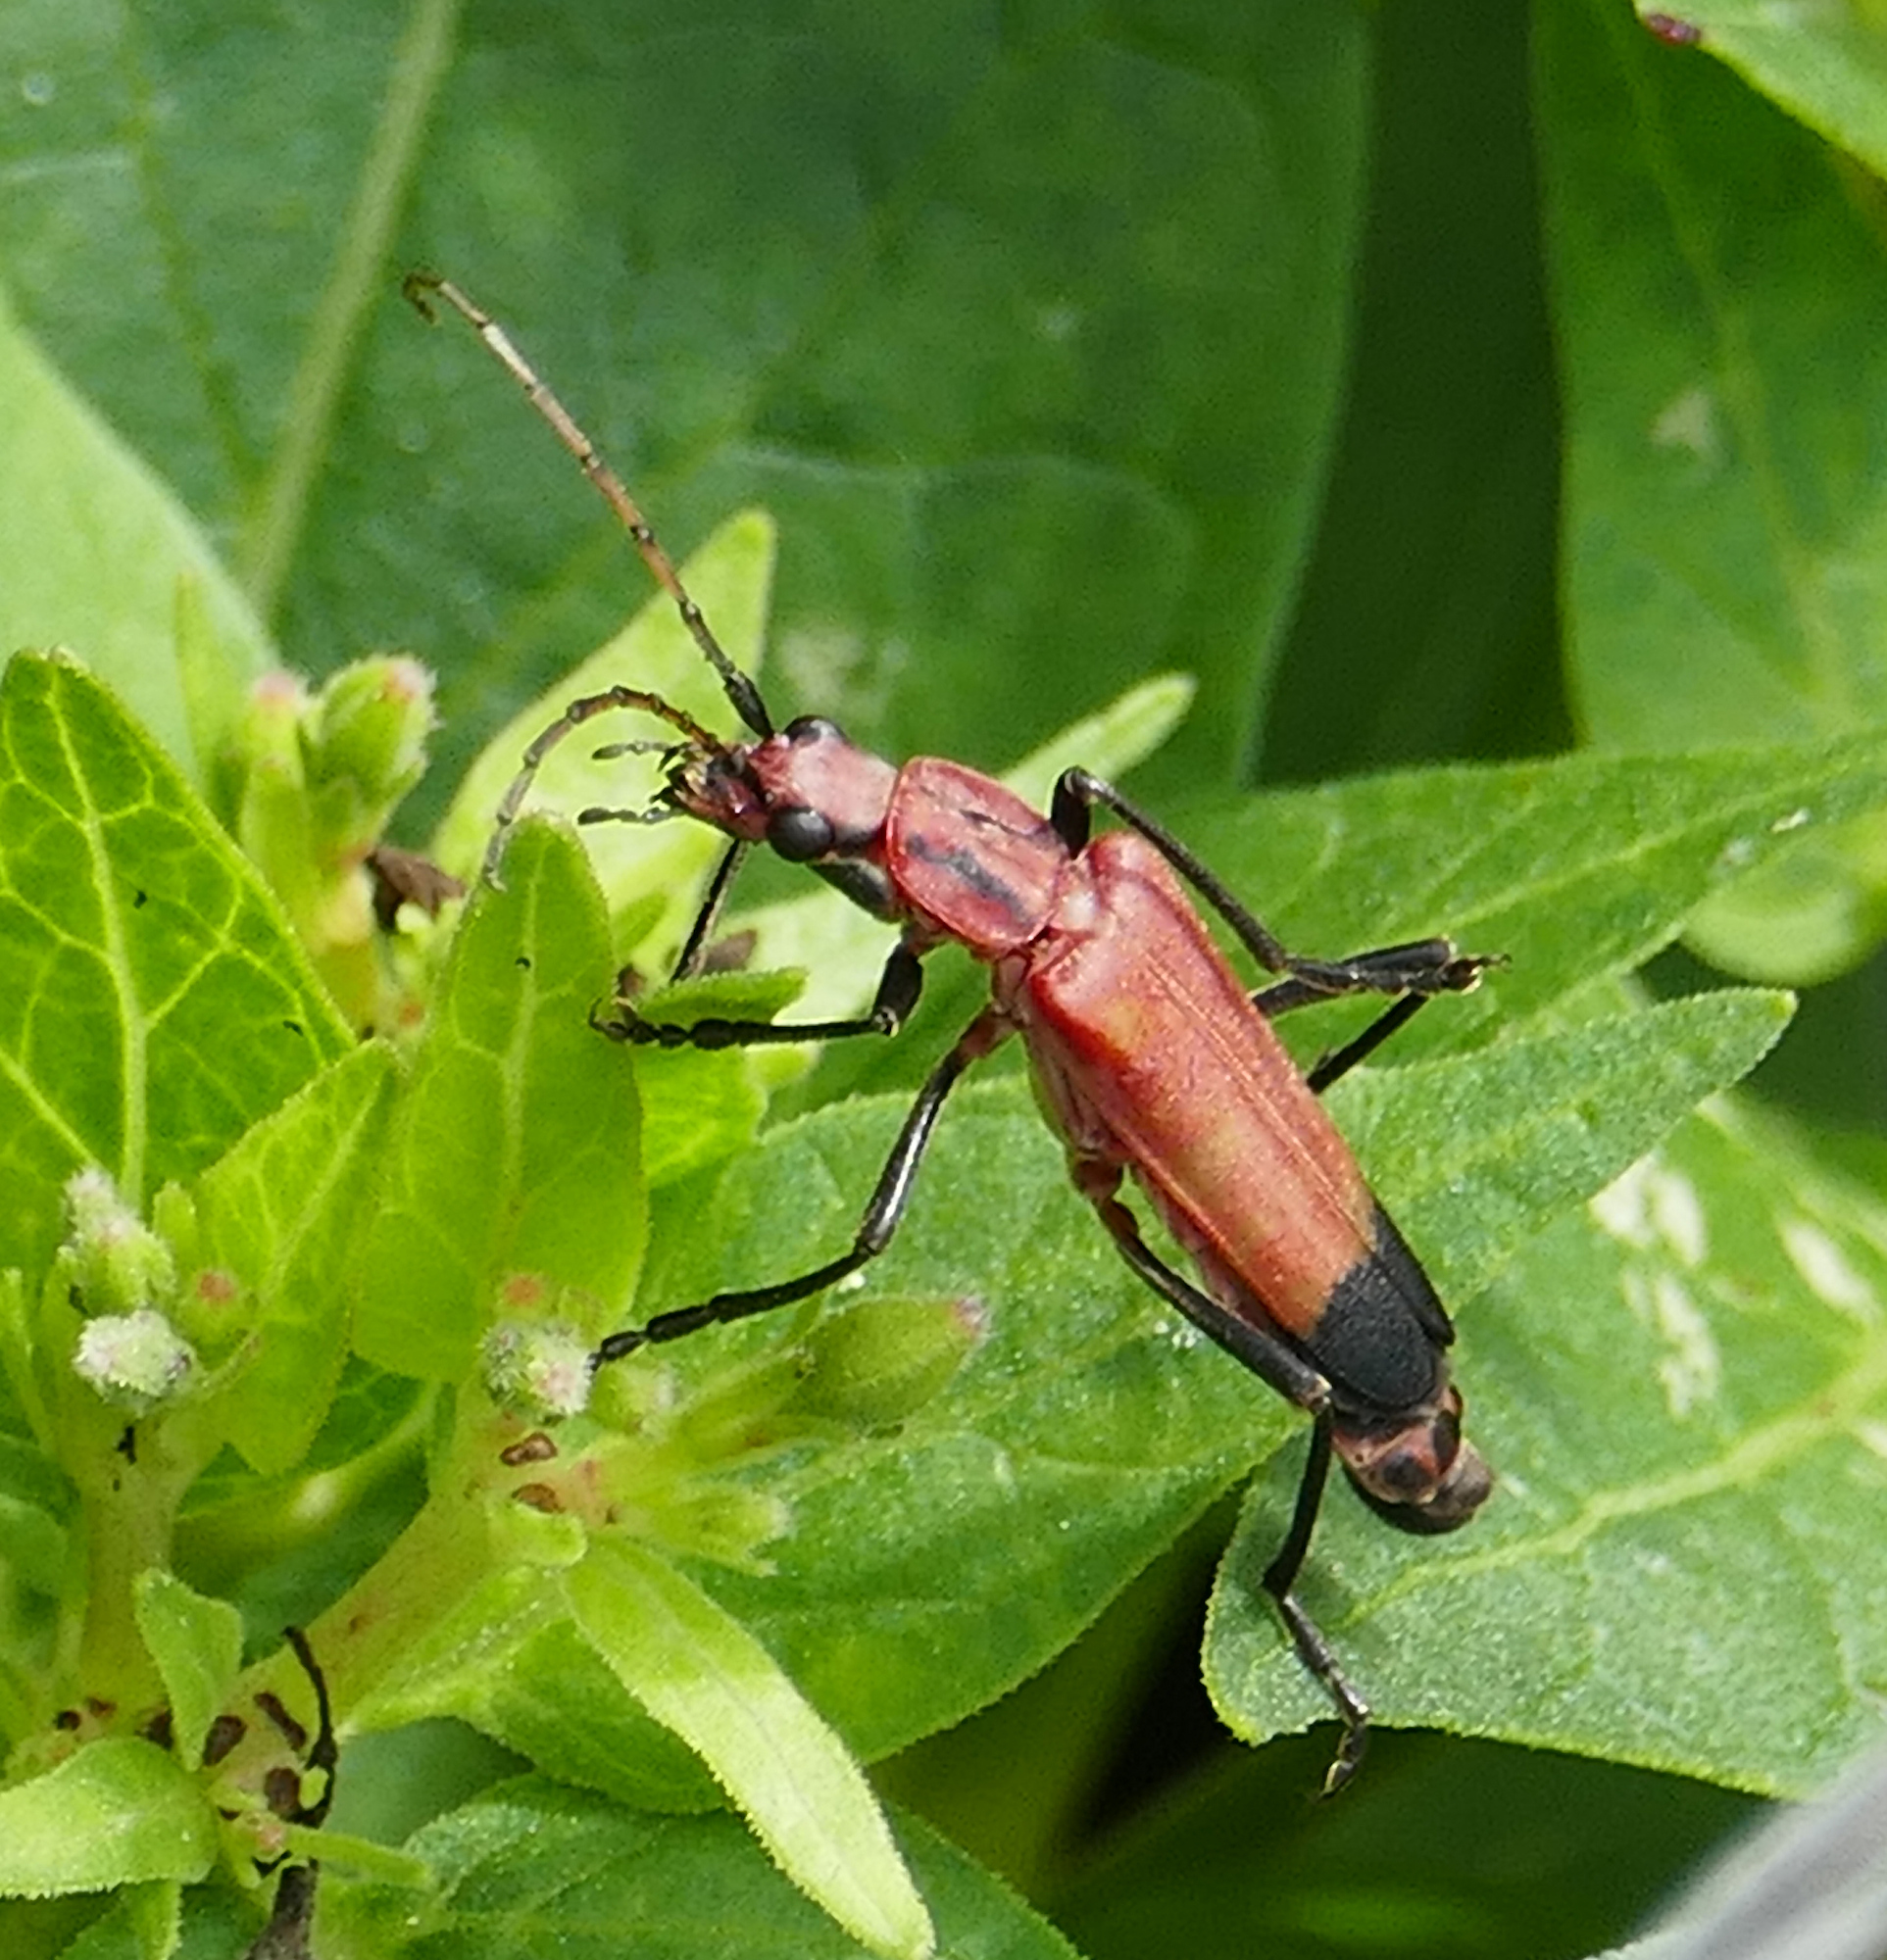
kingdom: Animalia
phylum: Arthropoda
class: Insecta
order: Coleoptera
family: Cantharidae
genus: Chauliognathus
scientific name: Chauliognathus lecontei
